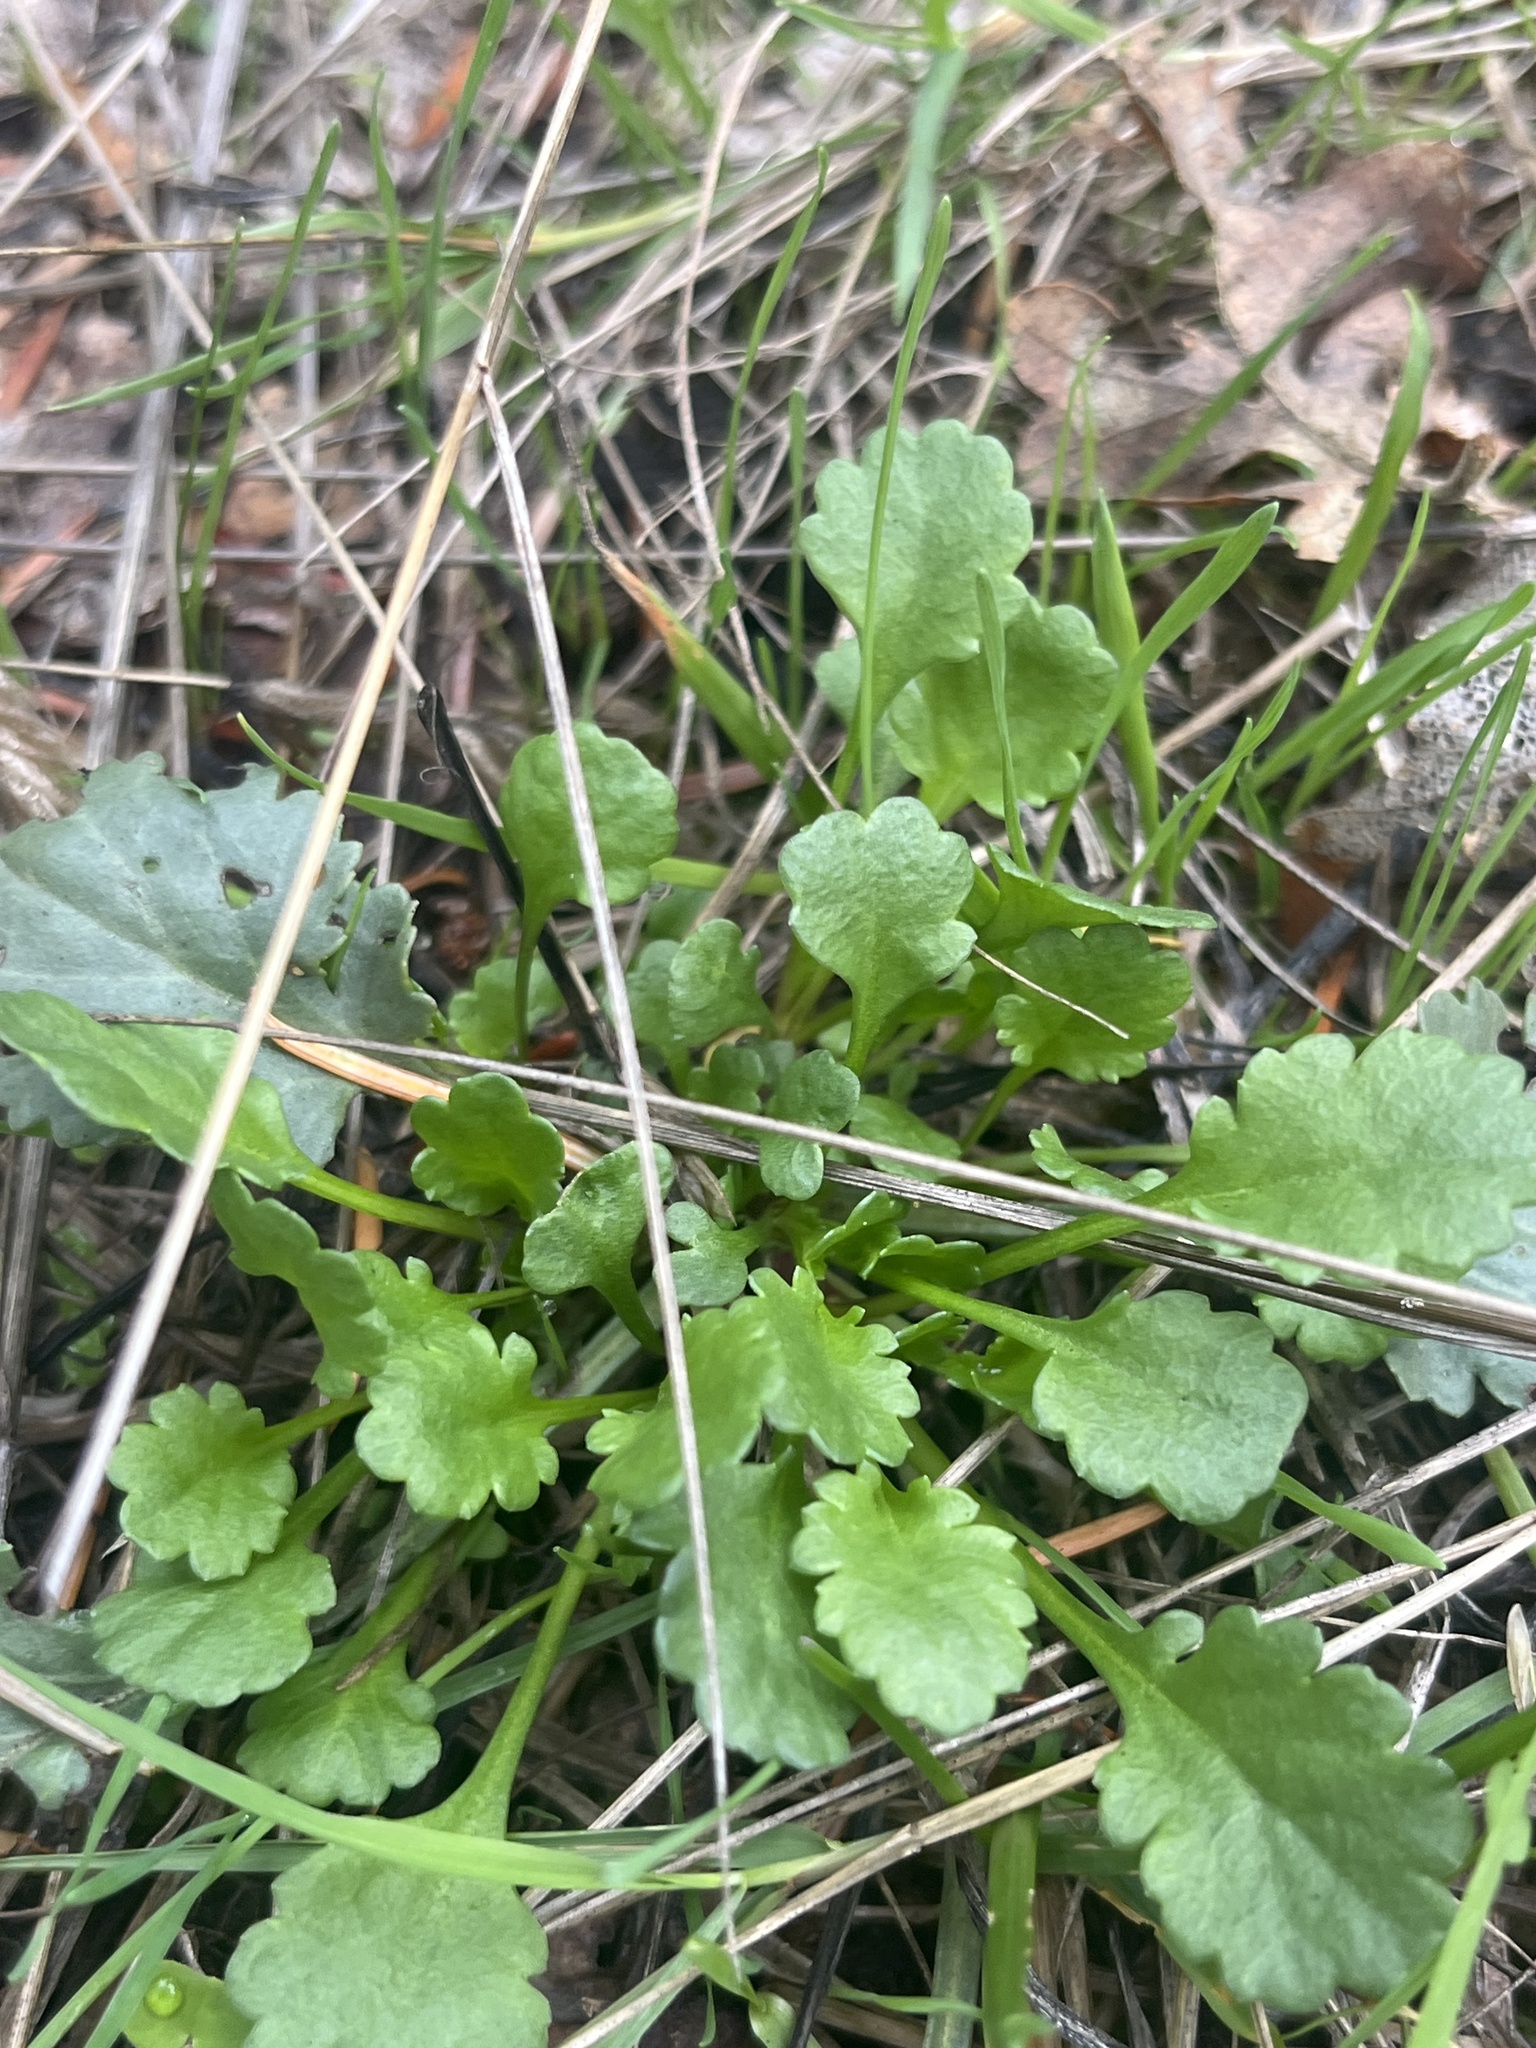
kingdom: Plantae
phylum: Tracheophyta
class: Magnoliopsida
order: Asterales
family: Asteraceae
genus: Leucanthemum
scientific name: Leucanthemum vulgare
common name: Oxeye daisy
